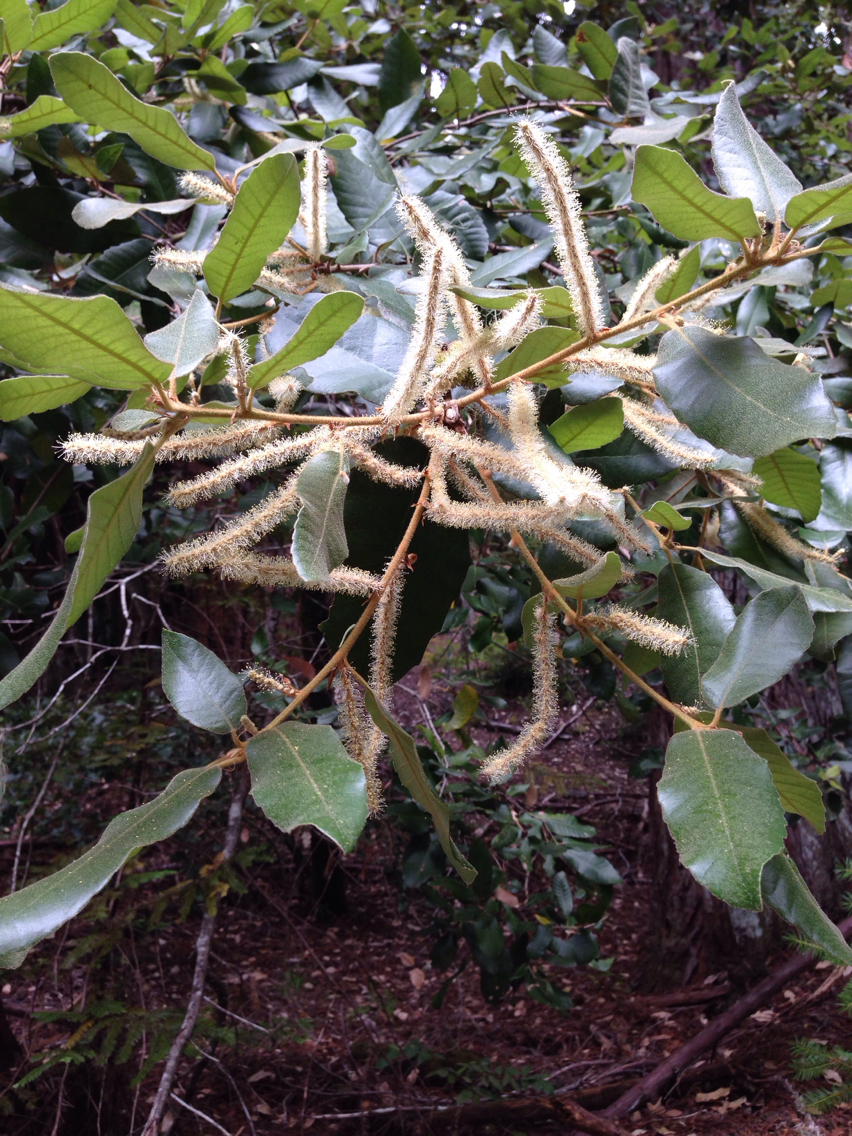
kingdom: Plantae
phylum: Tracheophyta
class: Magnoliopsida
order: Fagales
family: Fagaceae
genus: Notholithocarpus
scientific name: Notholithocarpus densiflorus
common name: Tan bark oak
